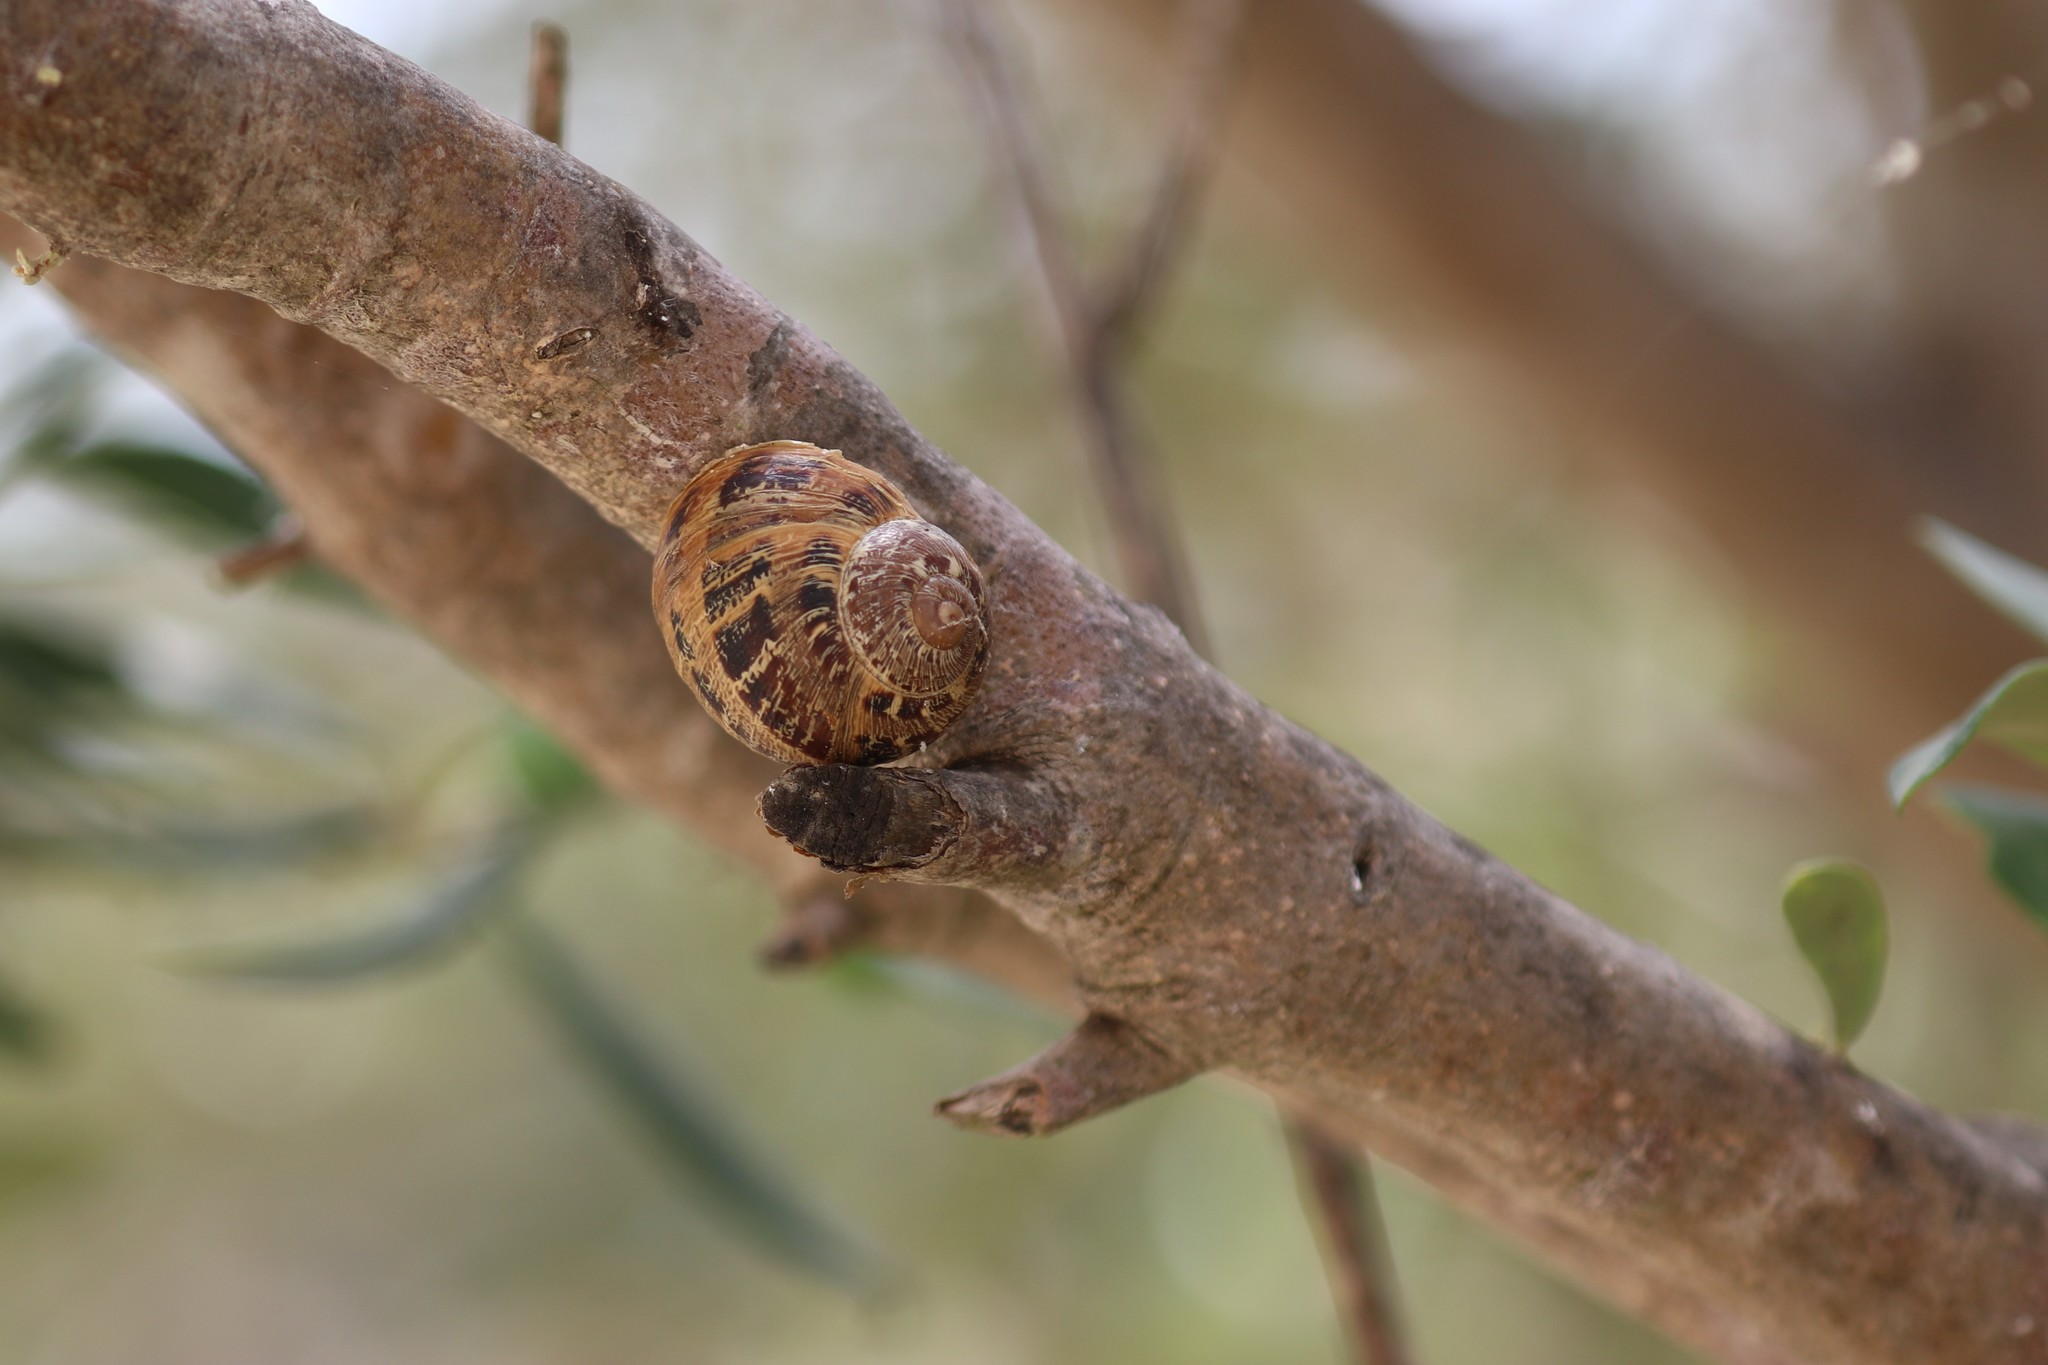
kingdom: Animalia
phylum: Mollusca
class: Gastropoda
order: Stylommatophora
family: Helicidae
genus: Cornu
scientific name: Cornu aspersum
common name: Brown garden snail
